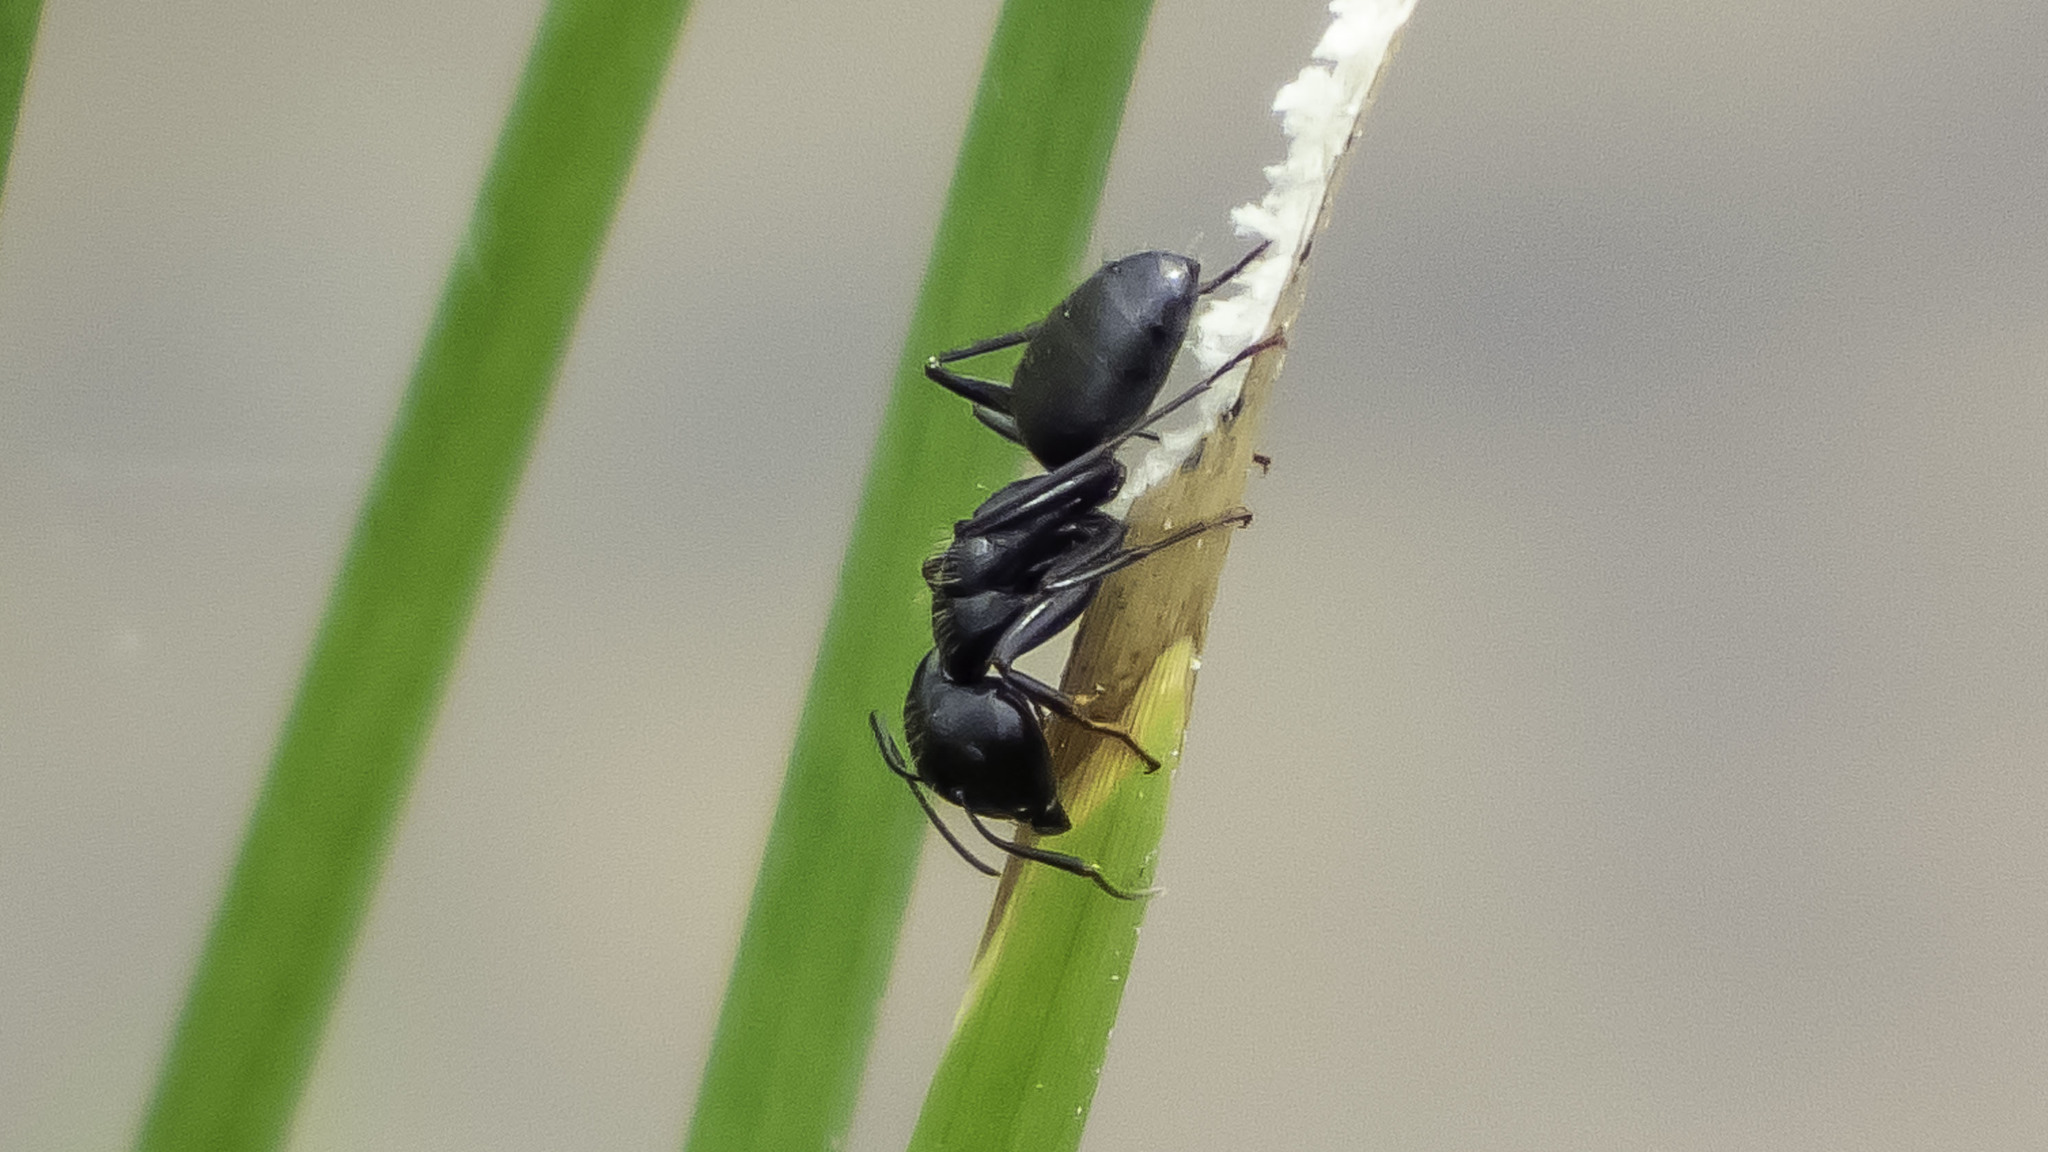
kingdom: Animalia
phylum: Arthropoda
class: Insecta
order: Hymenoptera
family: Formicidae
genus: Camponotus
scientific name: Camponotus pennsylvanicus
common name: Black carpenter ant
